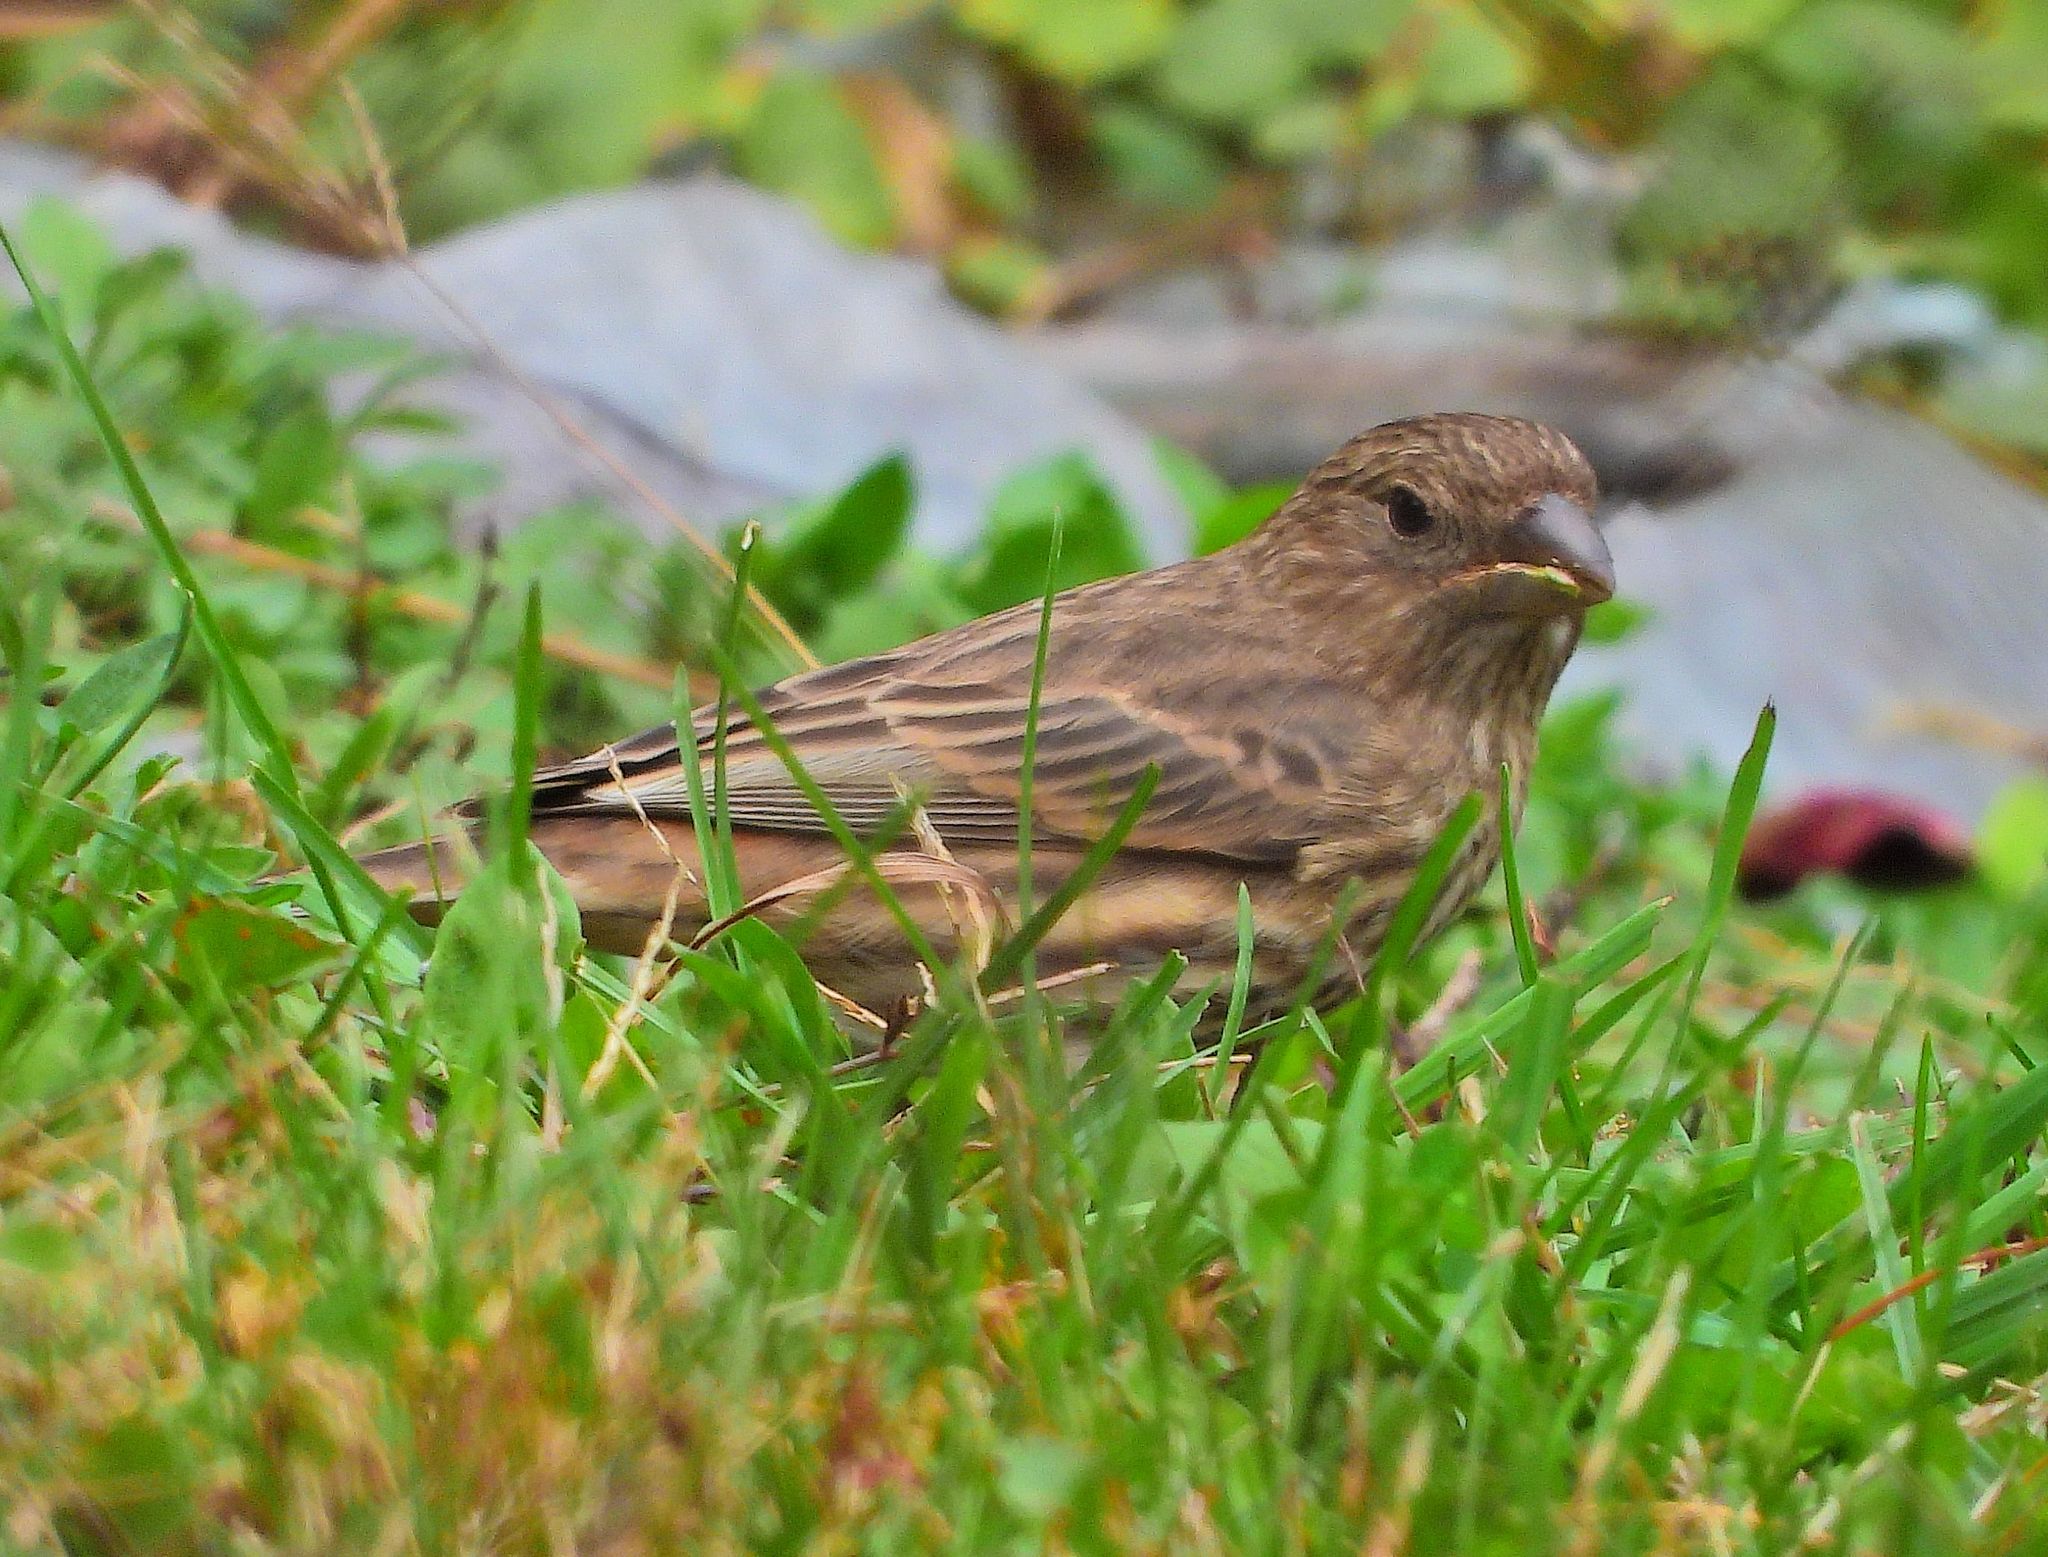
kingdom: Animalia
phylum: Chordata
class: Aves
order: Passeriformes
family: Fringillidae
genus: Haemorhous
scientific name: Haemorhous mexicanus
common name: House finch
